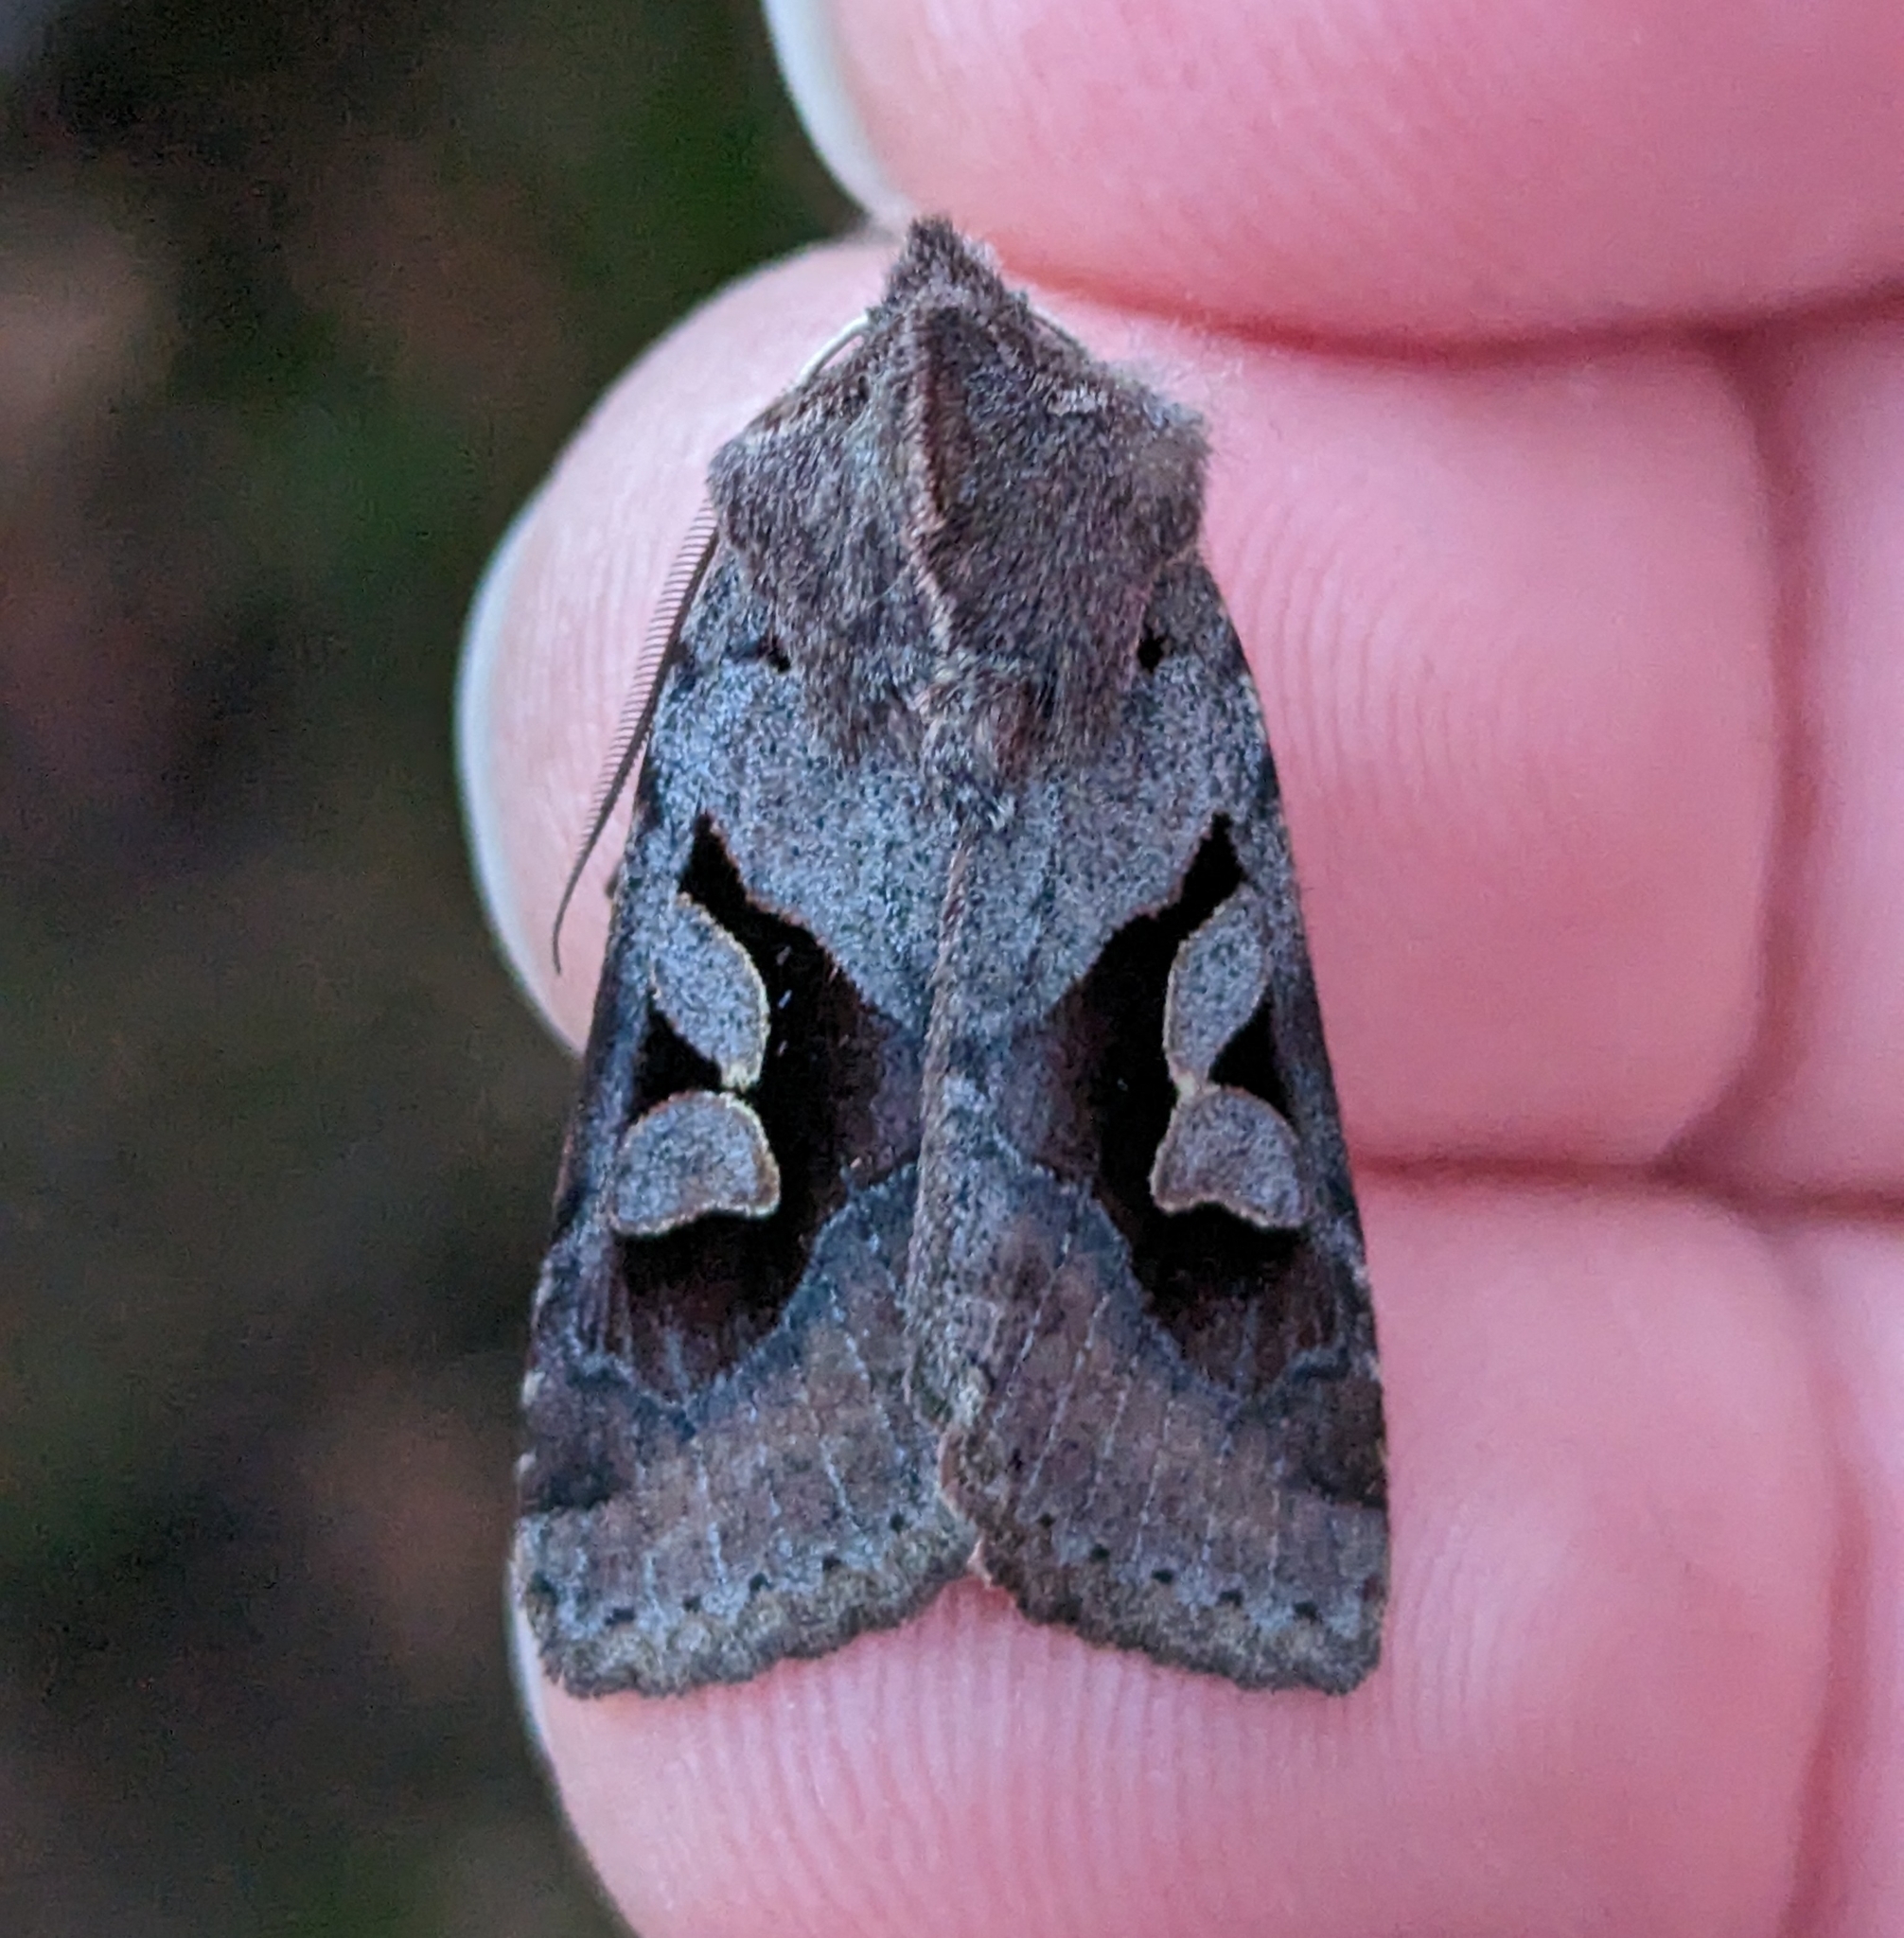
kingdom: Animalia
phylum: Arthropoda
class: Insecta
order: Lepidoptera
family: Noctuidae
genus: Acerra
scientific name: Acerra normalis
